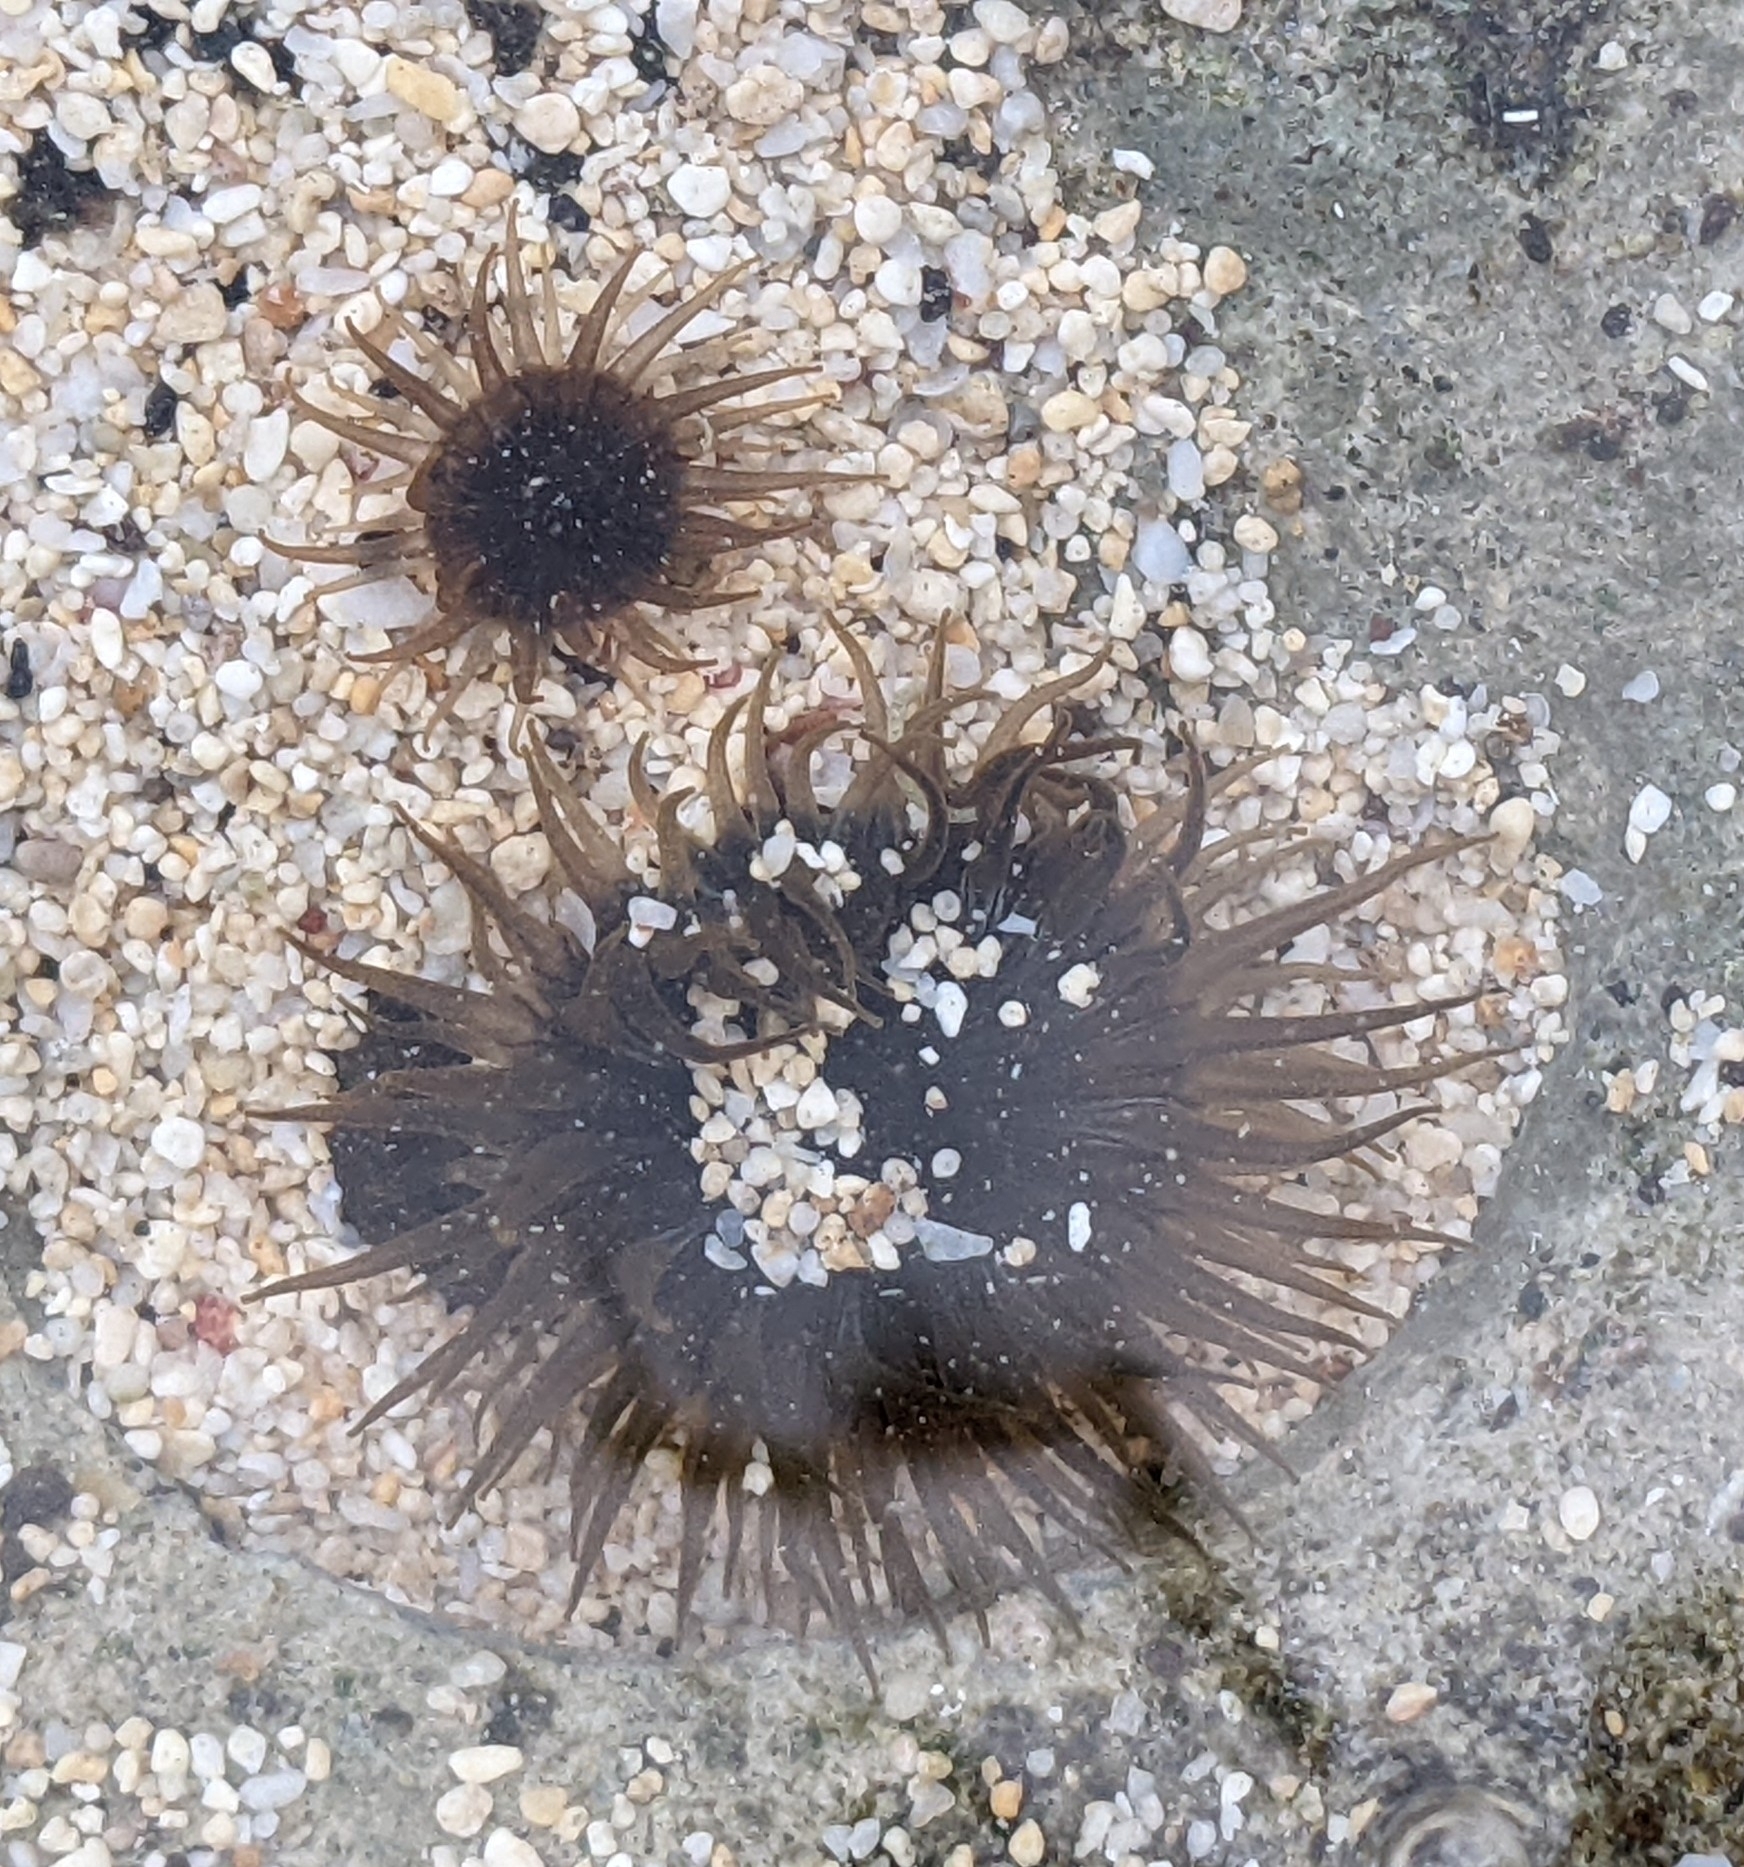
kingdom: Animalia
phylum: Cnidaria
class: Anthozoa
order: Actiniaria
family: Actiniidae
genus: Anthopleura
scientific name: Anthopleura nigrescens
